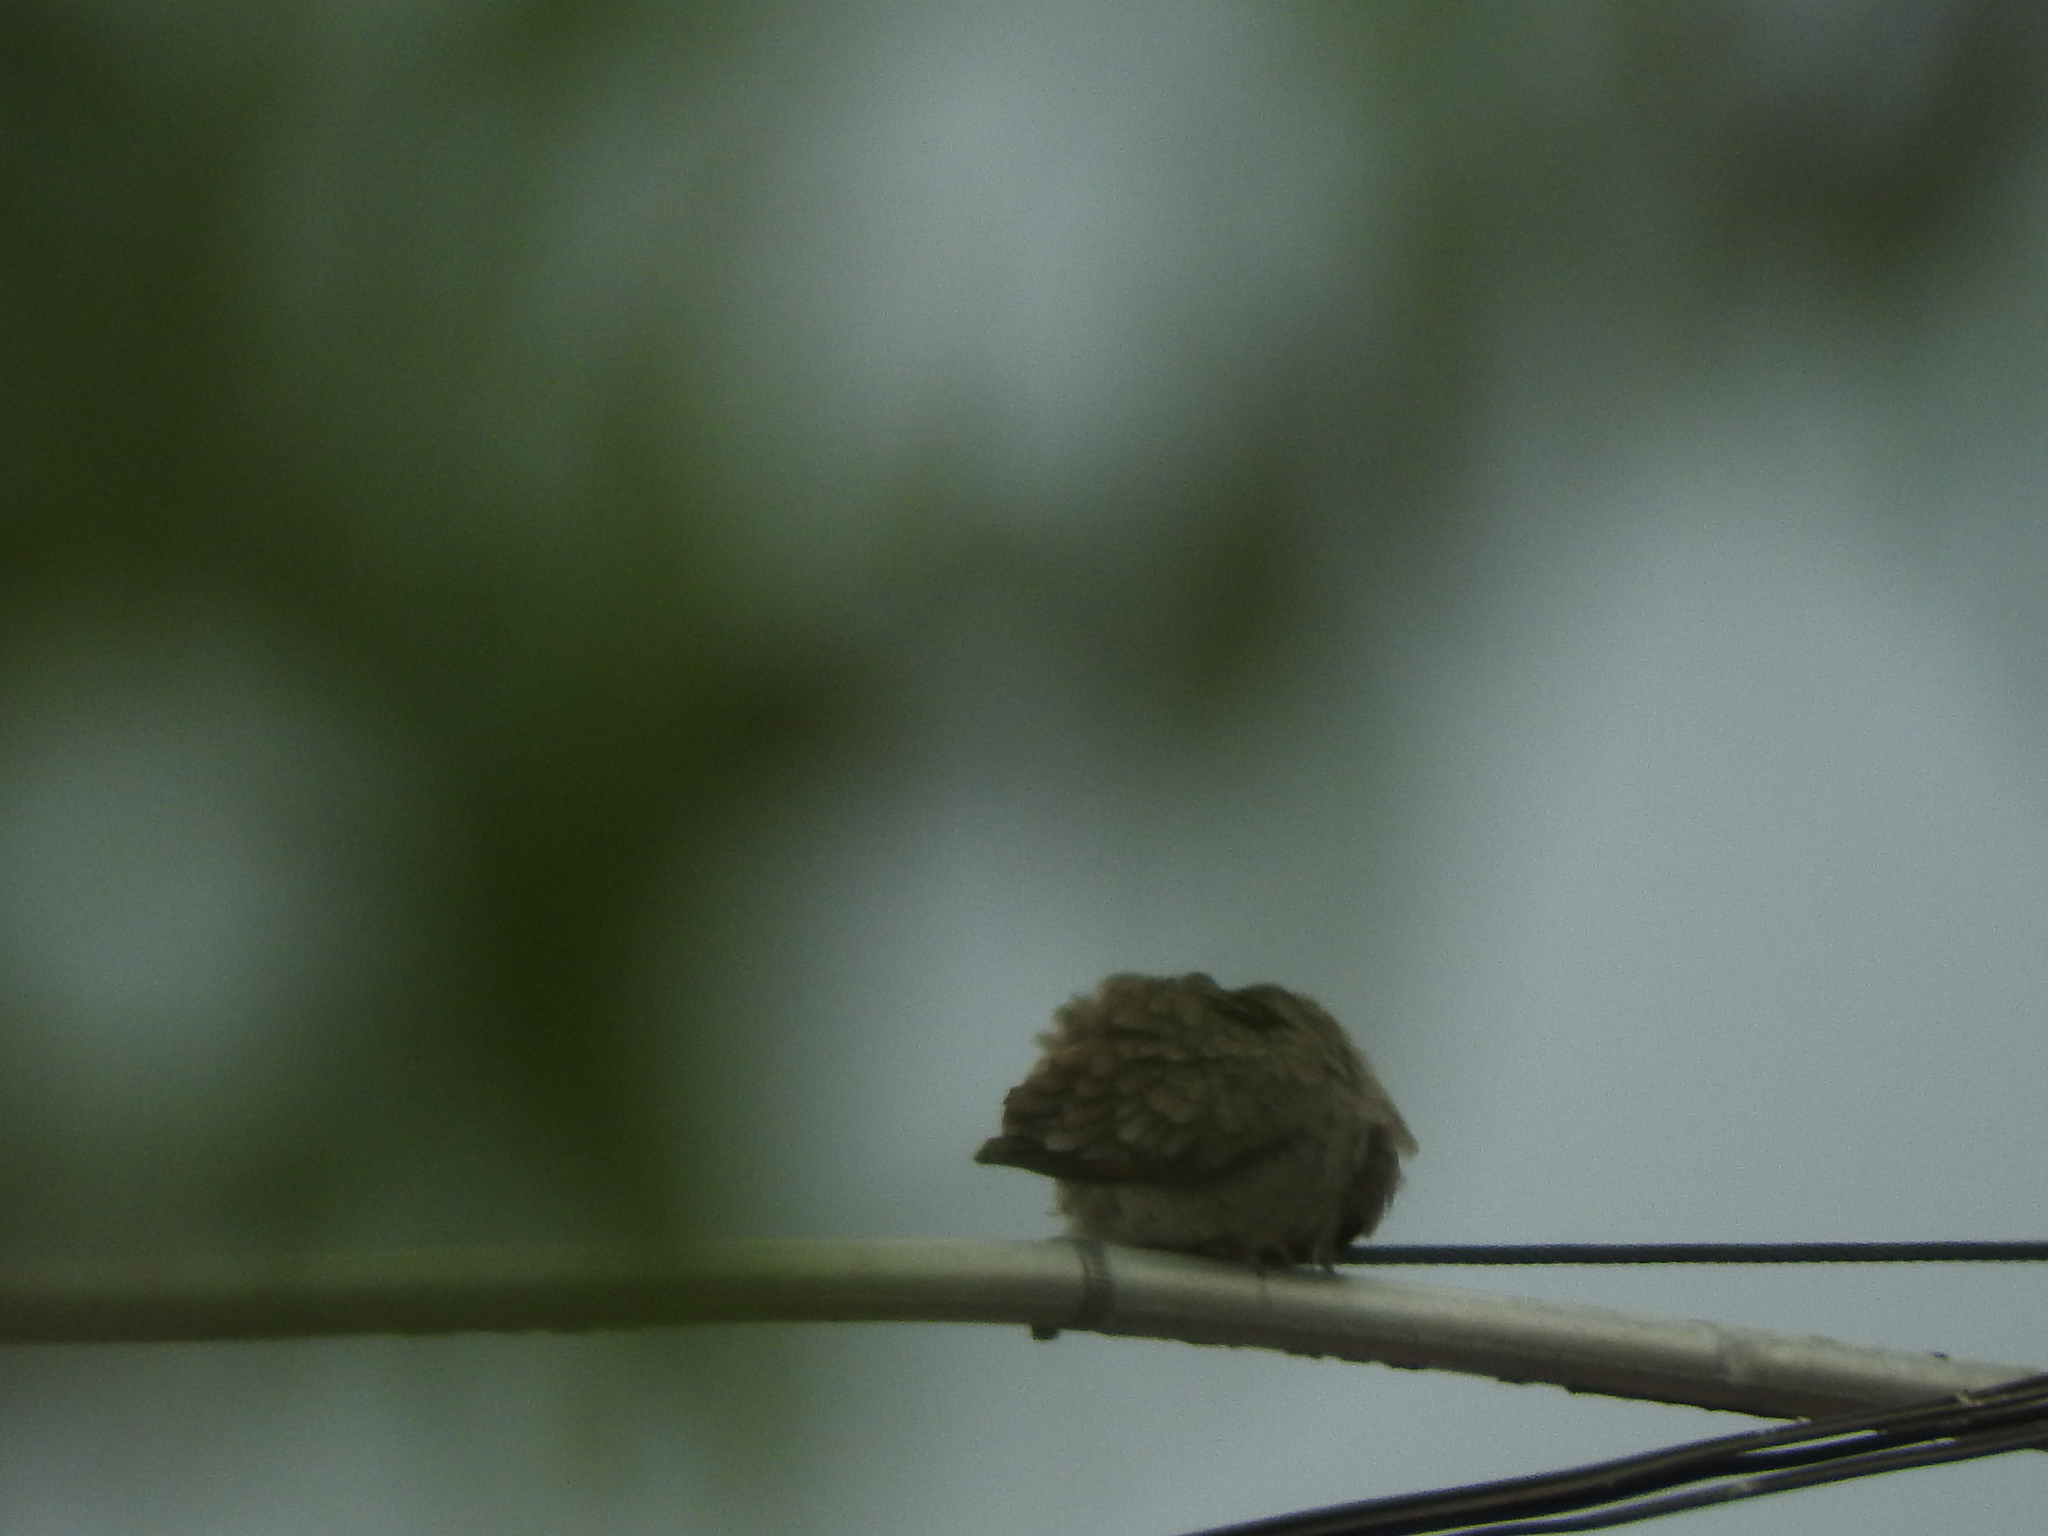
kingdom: Animalia
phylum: Chordata
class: Aves
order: Columbiformes
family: Columbidae
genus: Columbina
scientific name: Columbina inca
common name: Inca dove
